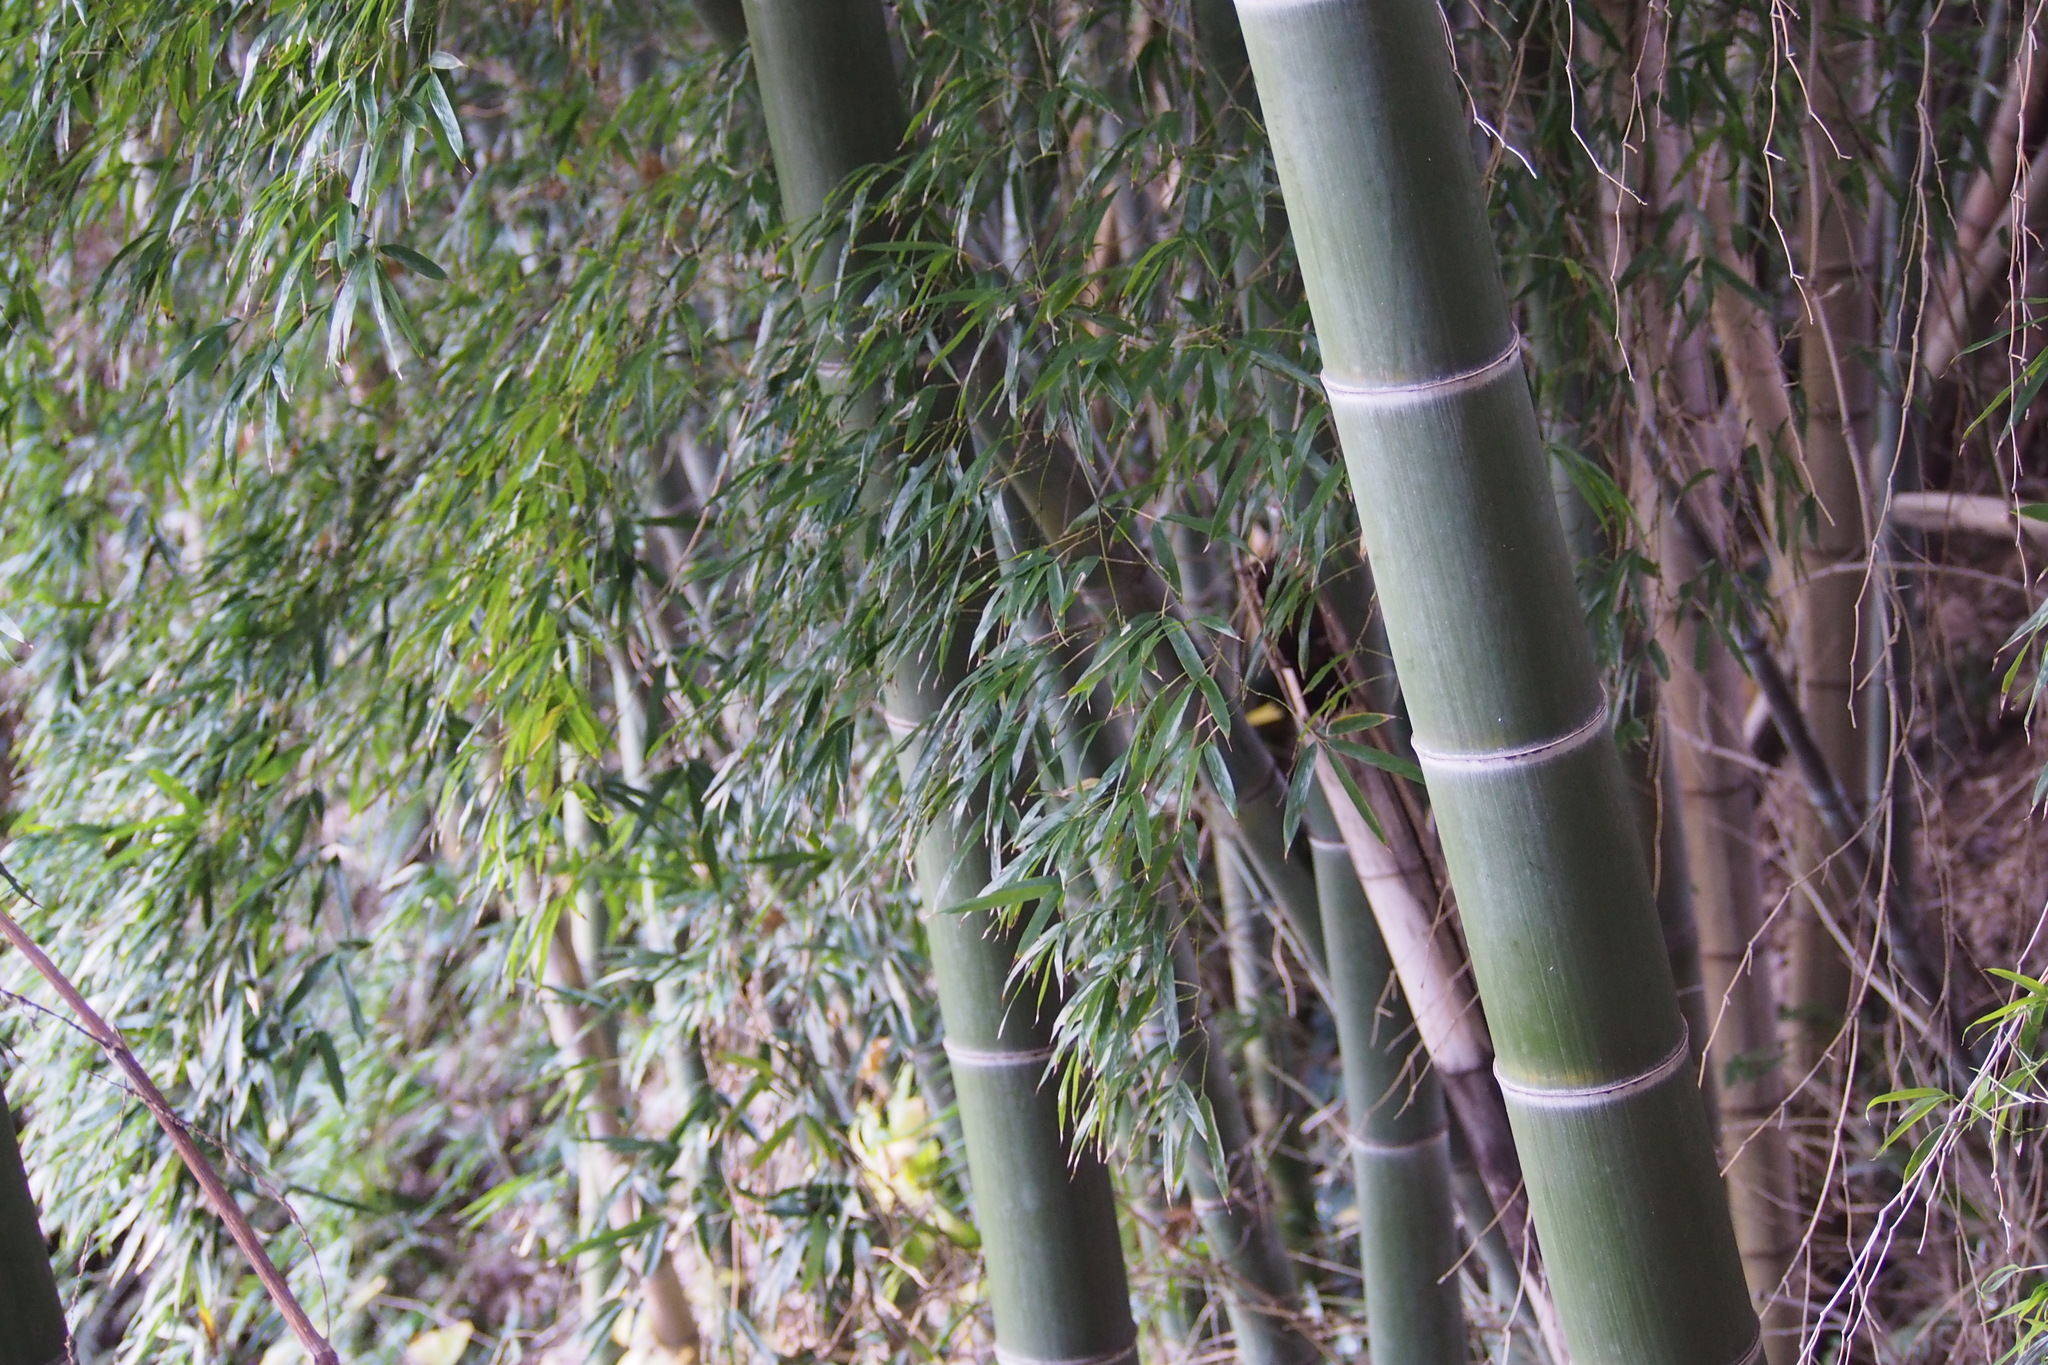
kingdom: Plantae
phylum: Tracheophyta
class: Liliopsida
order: Poales
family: Poaceae
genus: Phyllostachys
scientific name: Phyllostachys edulis
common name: Tortoise shell bamboo
